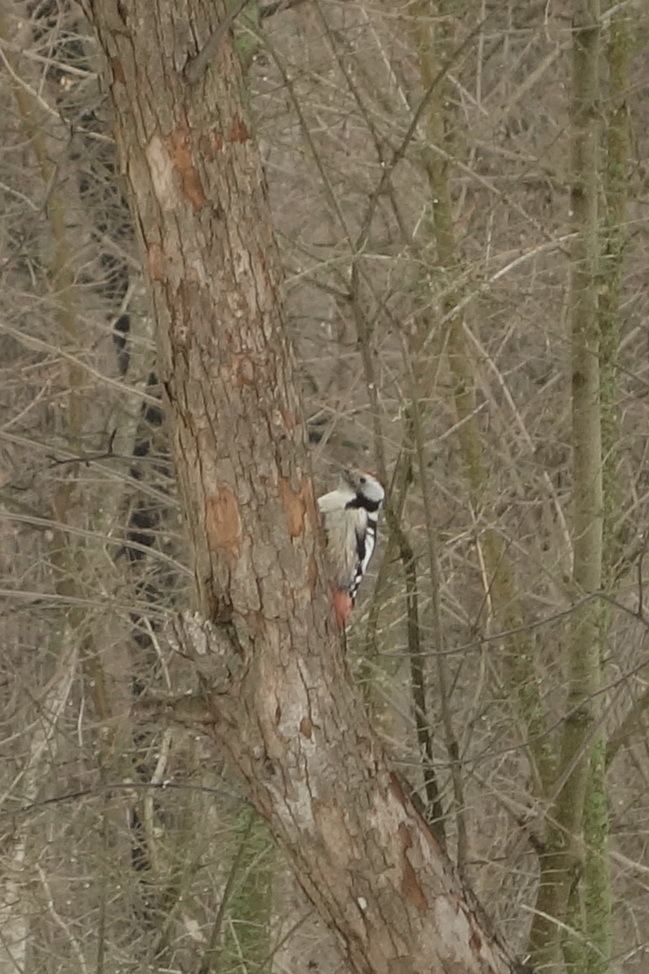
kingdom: Animalia
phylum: Chordata
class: Aves
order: Piciformes
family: Picidae
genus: Dendrocoptes
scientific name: Dendrocoptes medius
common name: Middle spotted woodpecker
